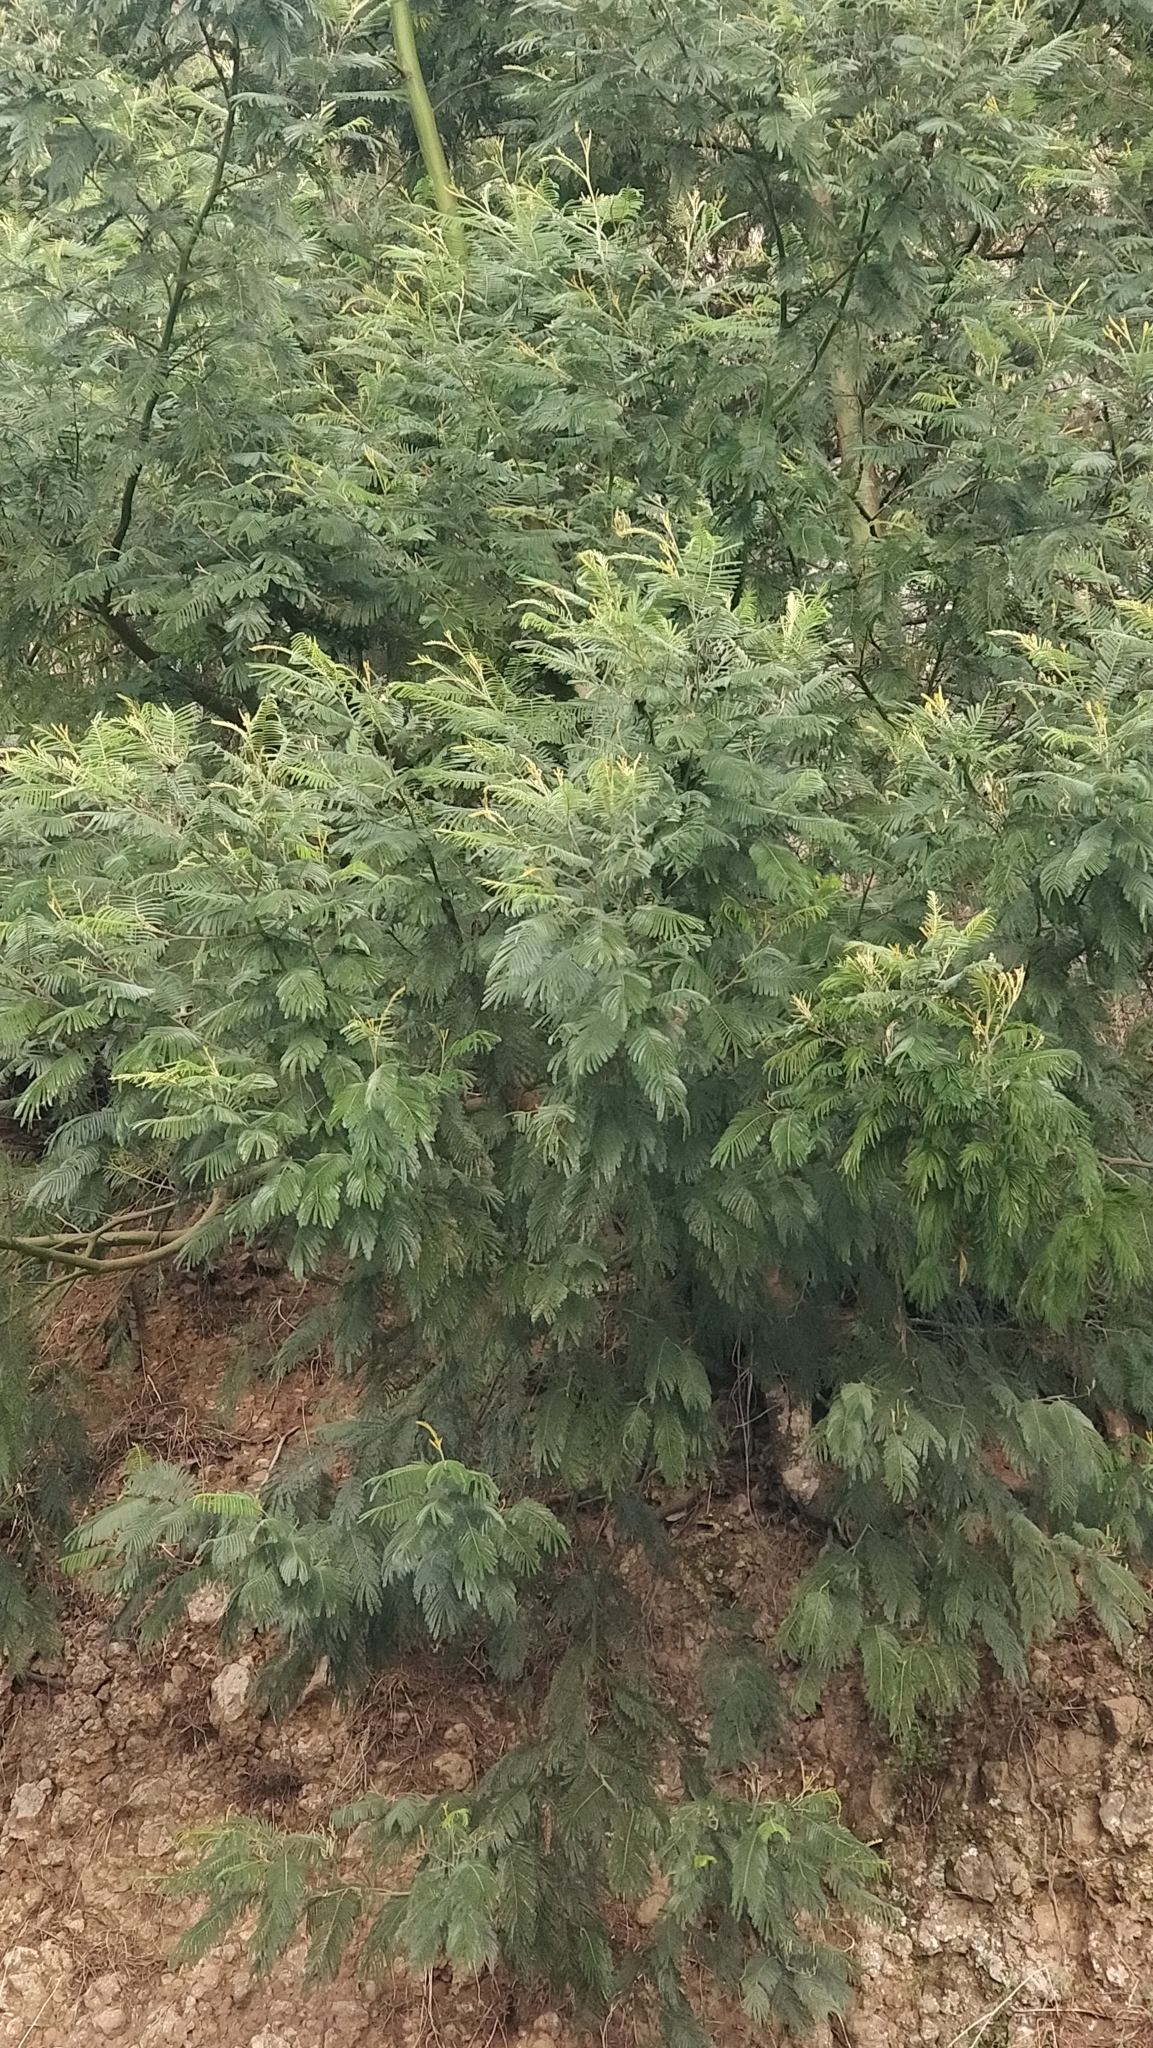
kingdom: Plantae
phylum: Tracheophyta
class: Magnoliopsida
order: Fabales
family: Fabaceae
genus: Acacia
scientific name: Acacia mearnsii
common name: Black wattle
